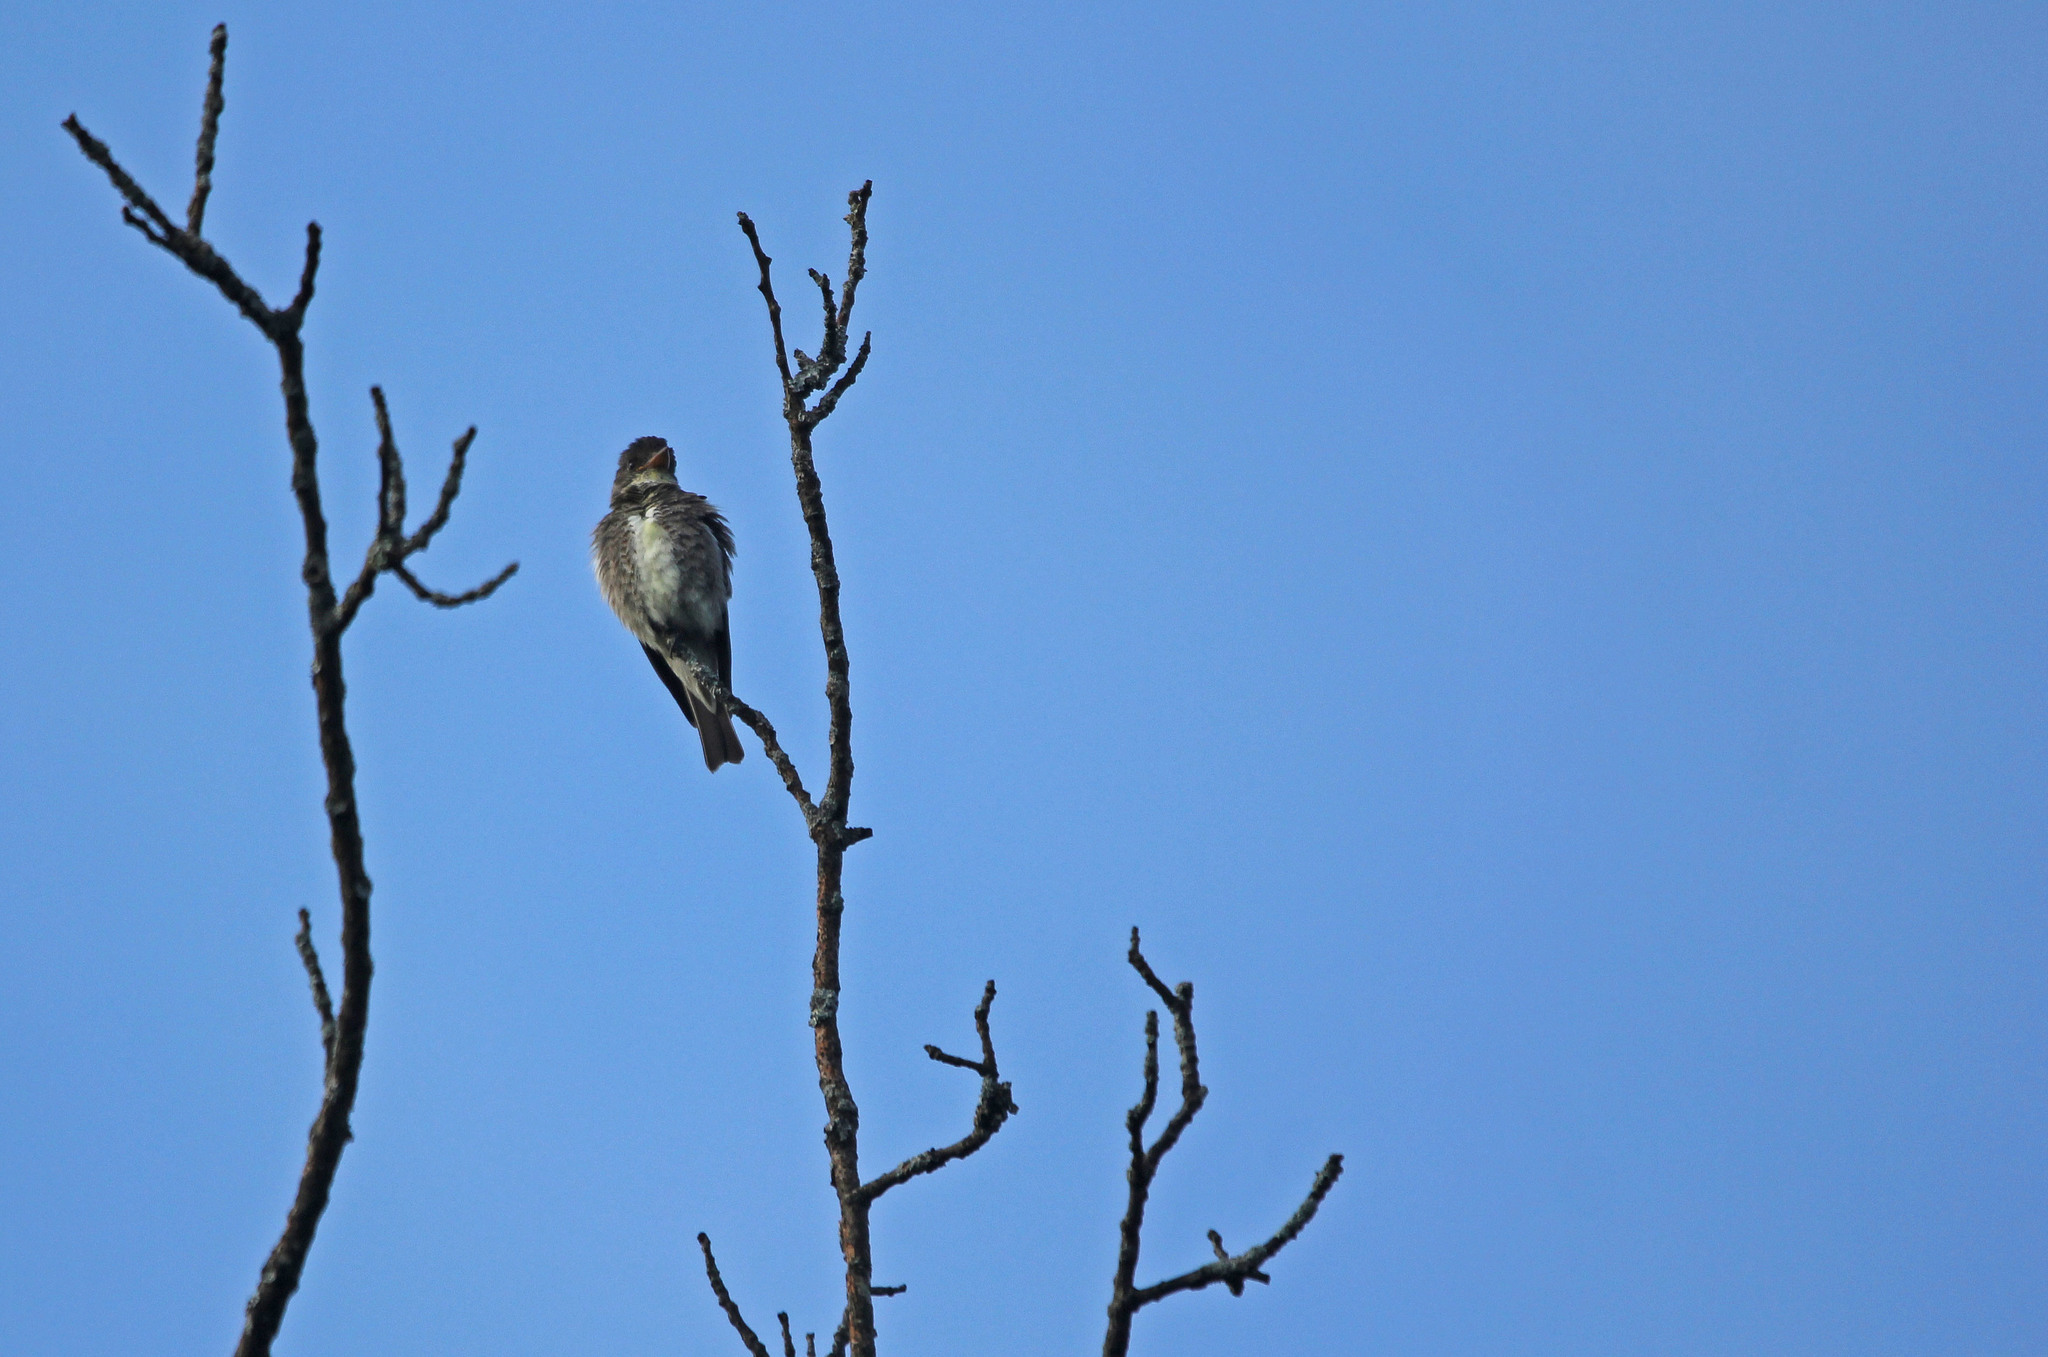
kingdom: Animalia
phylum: Chordata
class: Aves
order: Passeriformes
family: Tyrannidae
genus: Contopus
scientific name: Contopus cooperi
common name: Olive-sided flycatcher
